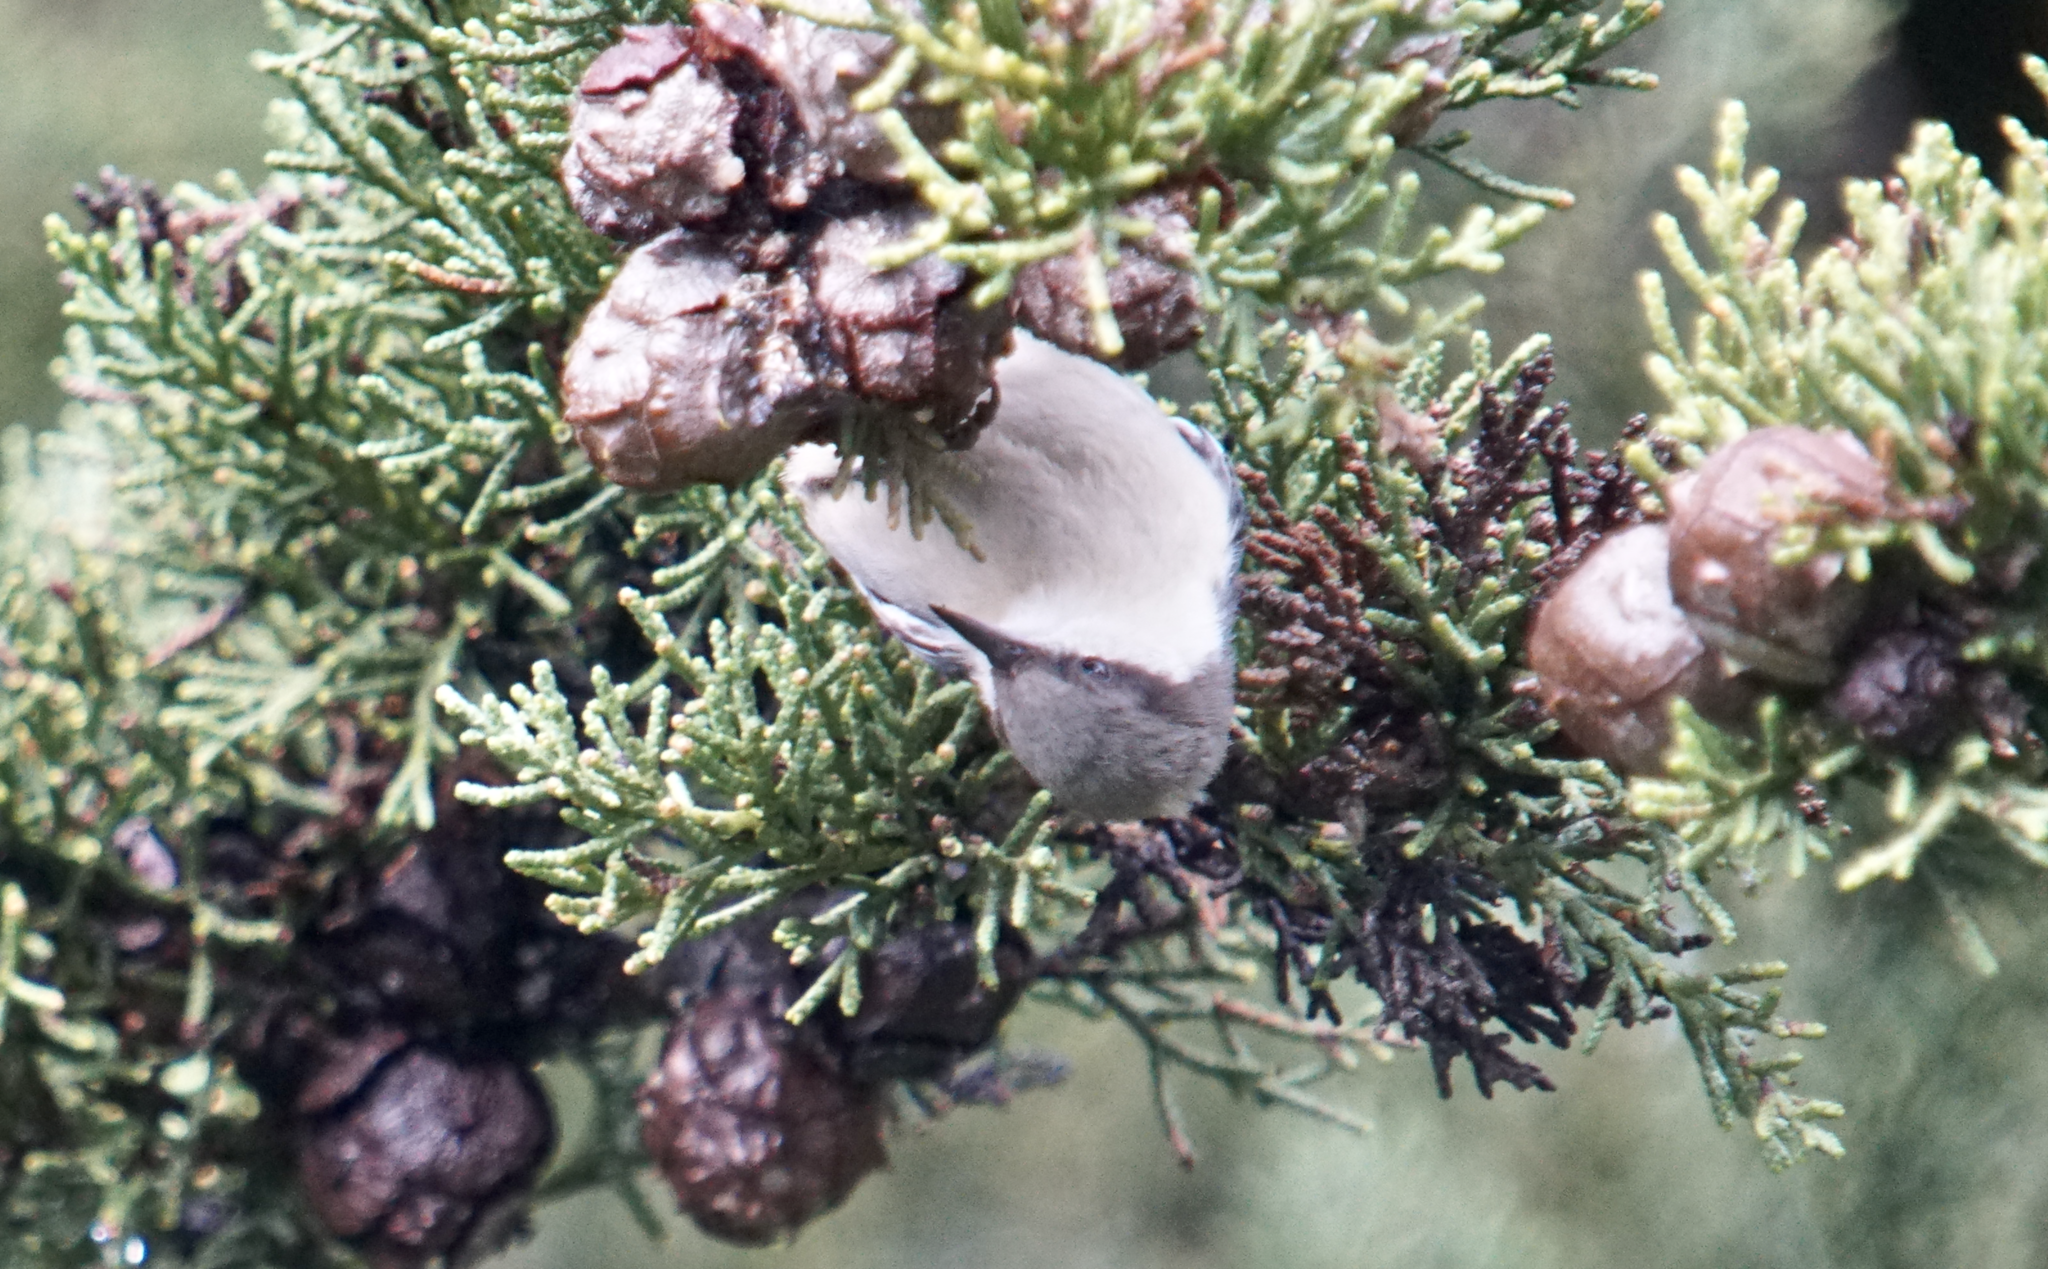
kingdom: Animalia
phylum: Chordata
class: Aves
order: Passeriformes
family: Sittidae
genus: Sitta
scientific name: Sitta pygmaea
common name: Pygmy nuthatch
